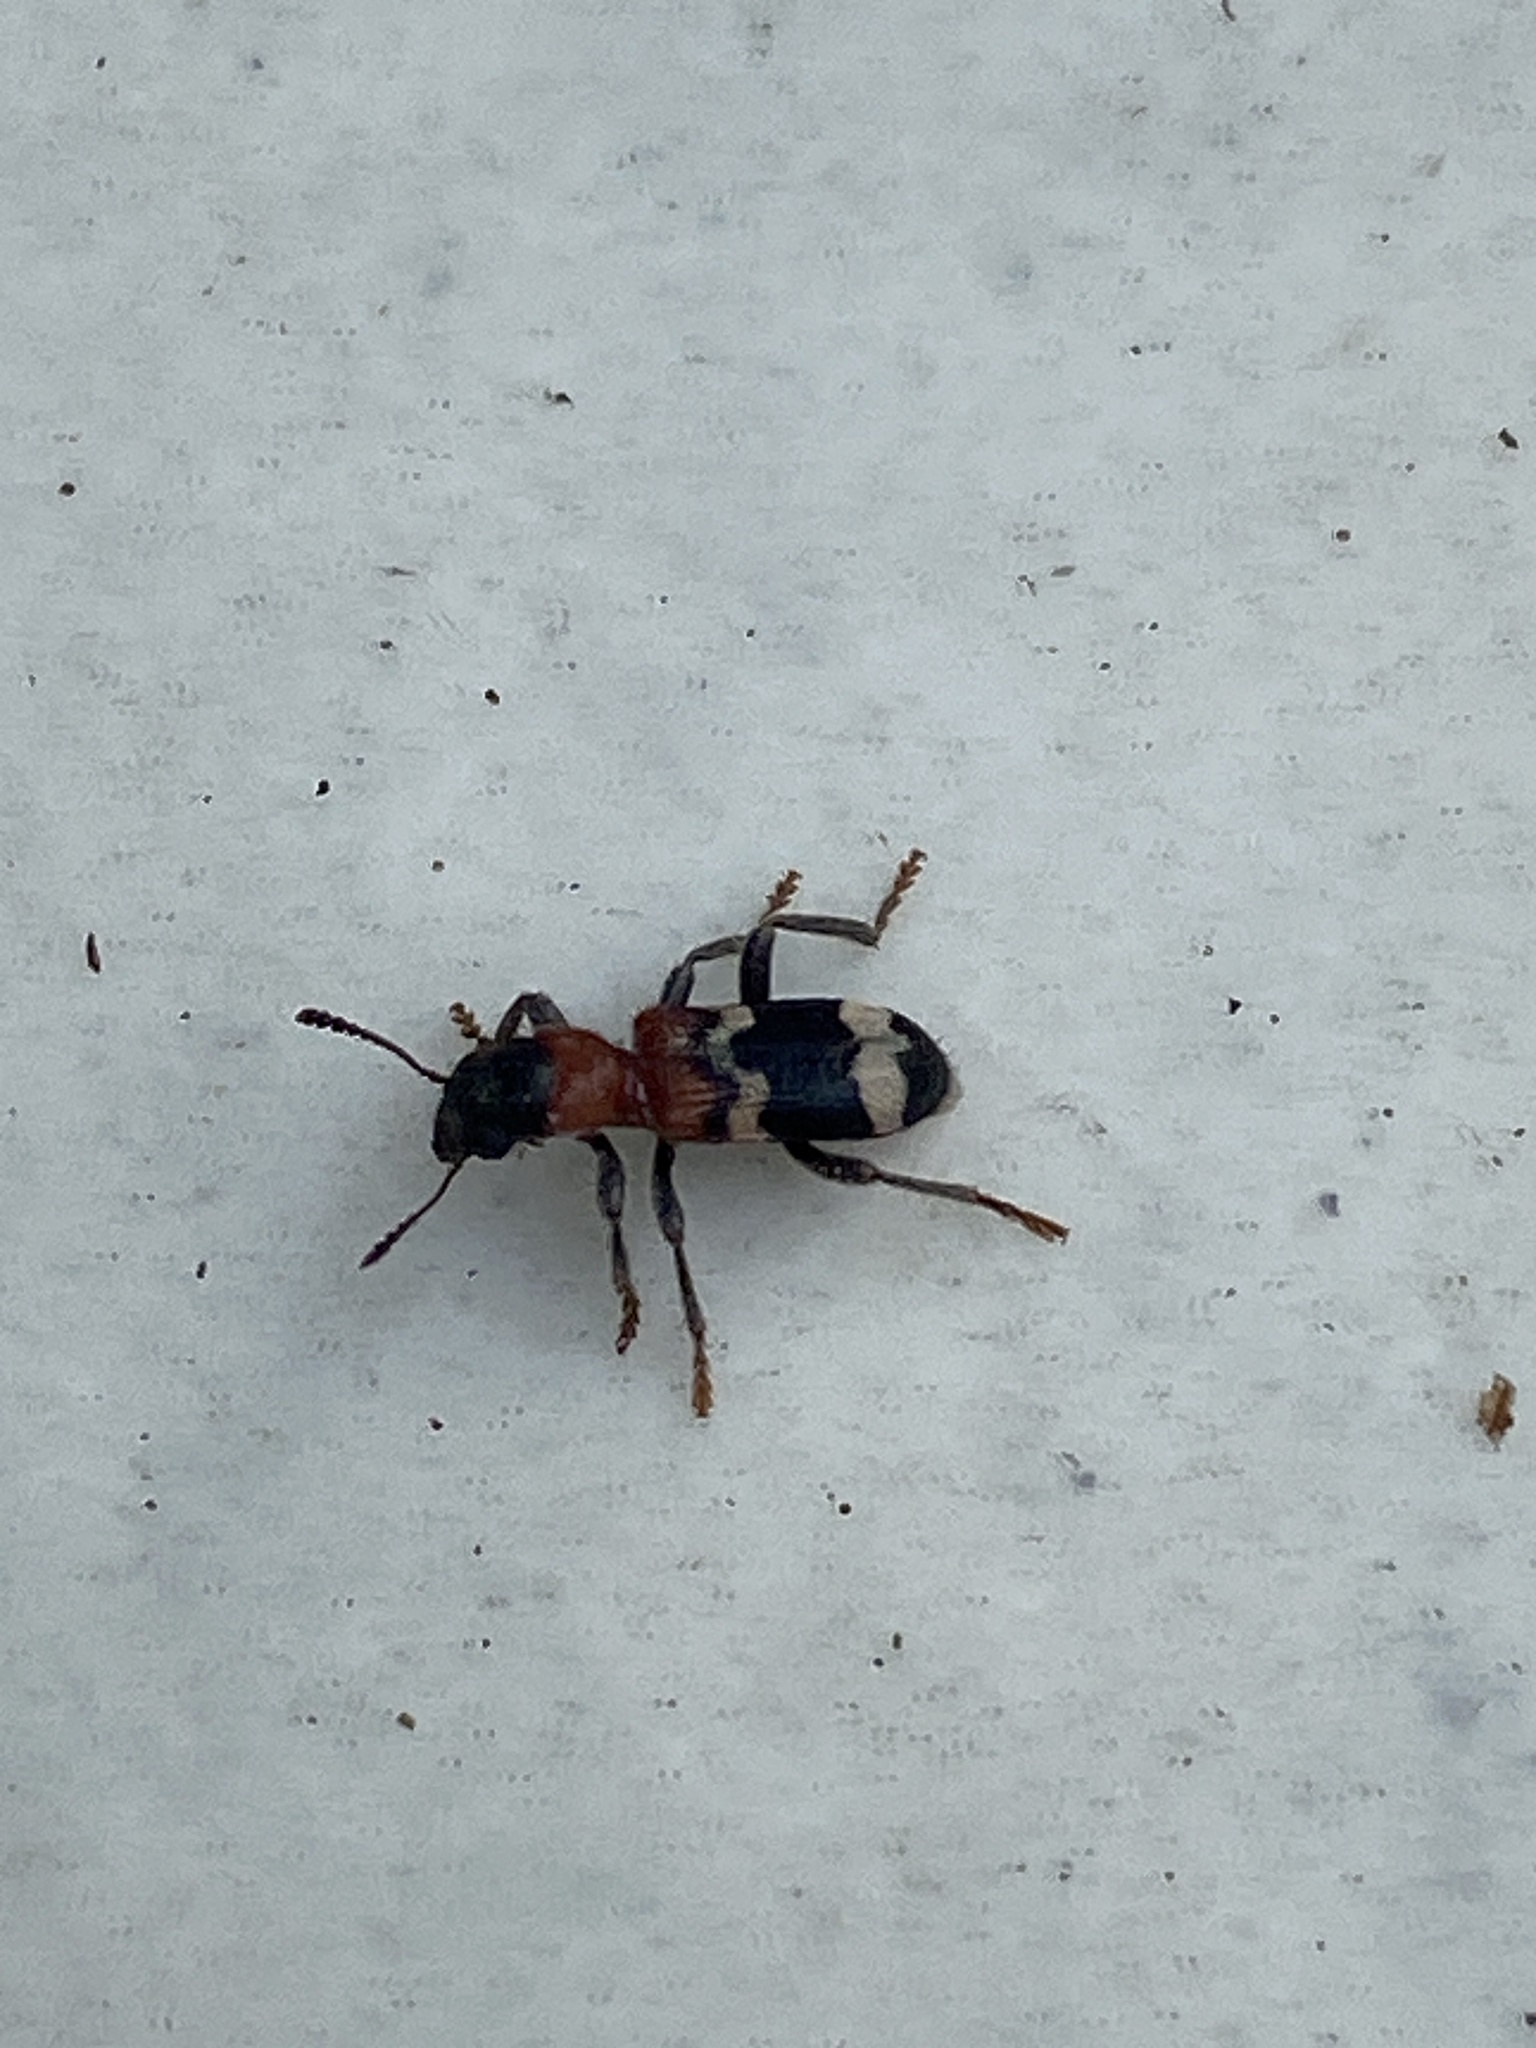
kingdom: Animalia
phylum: Arthropoda
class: Insecta
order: Coleoptera
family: Cleridae
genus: Thanasimus
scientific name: Thanasimus formicarius
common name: Ant beetle
